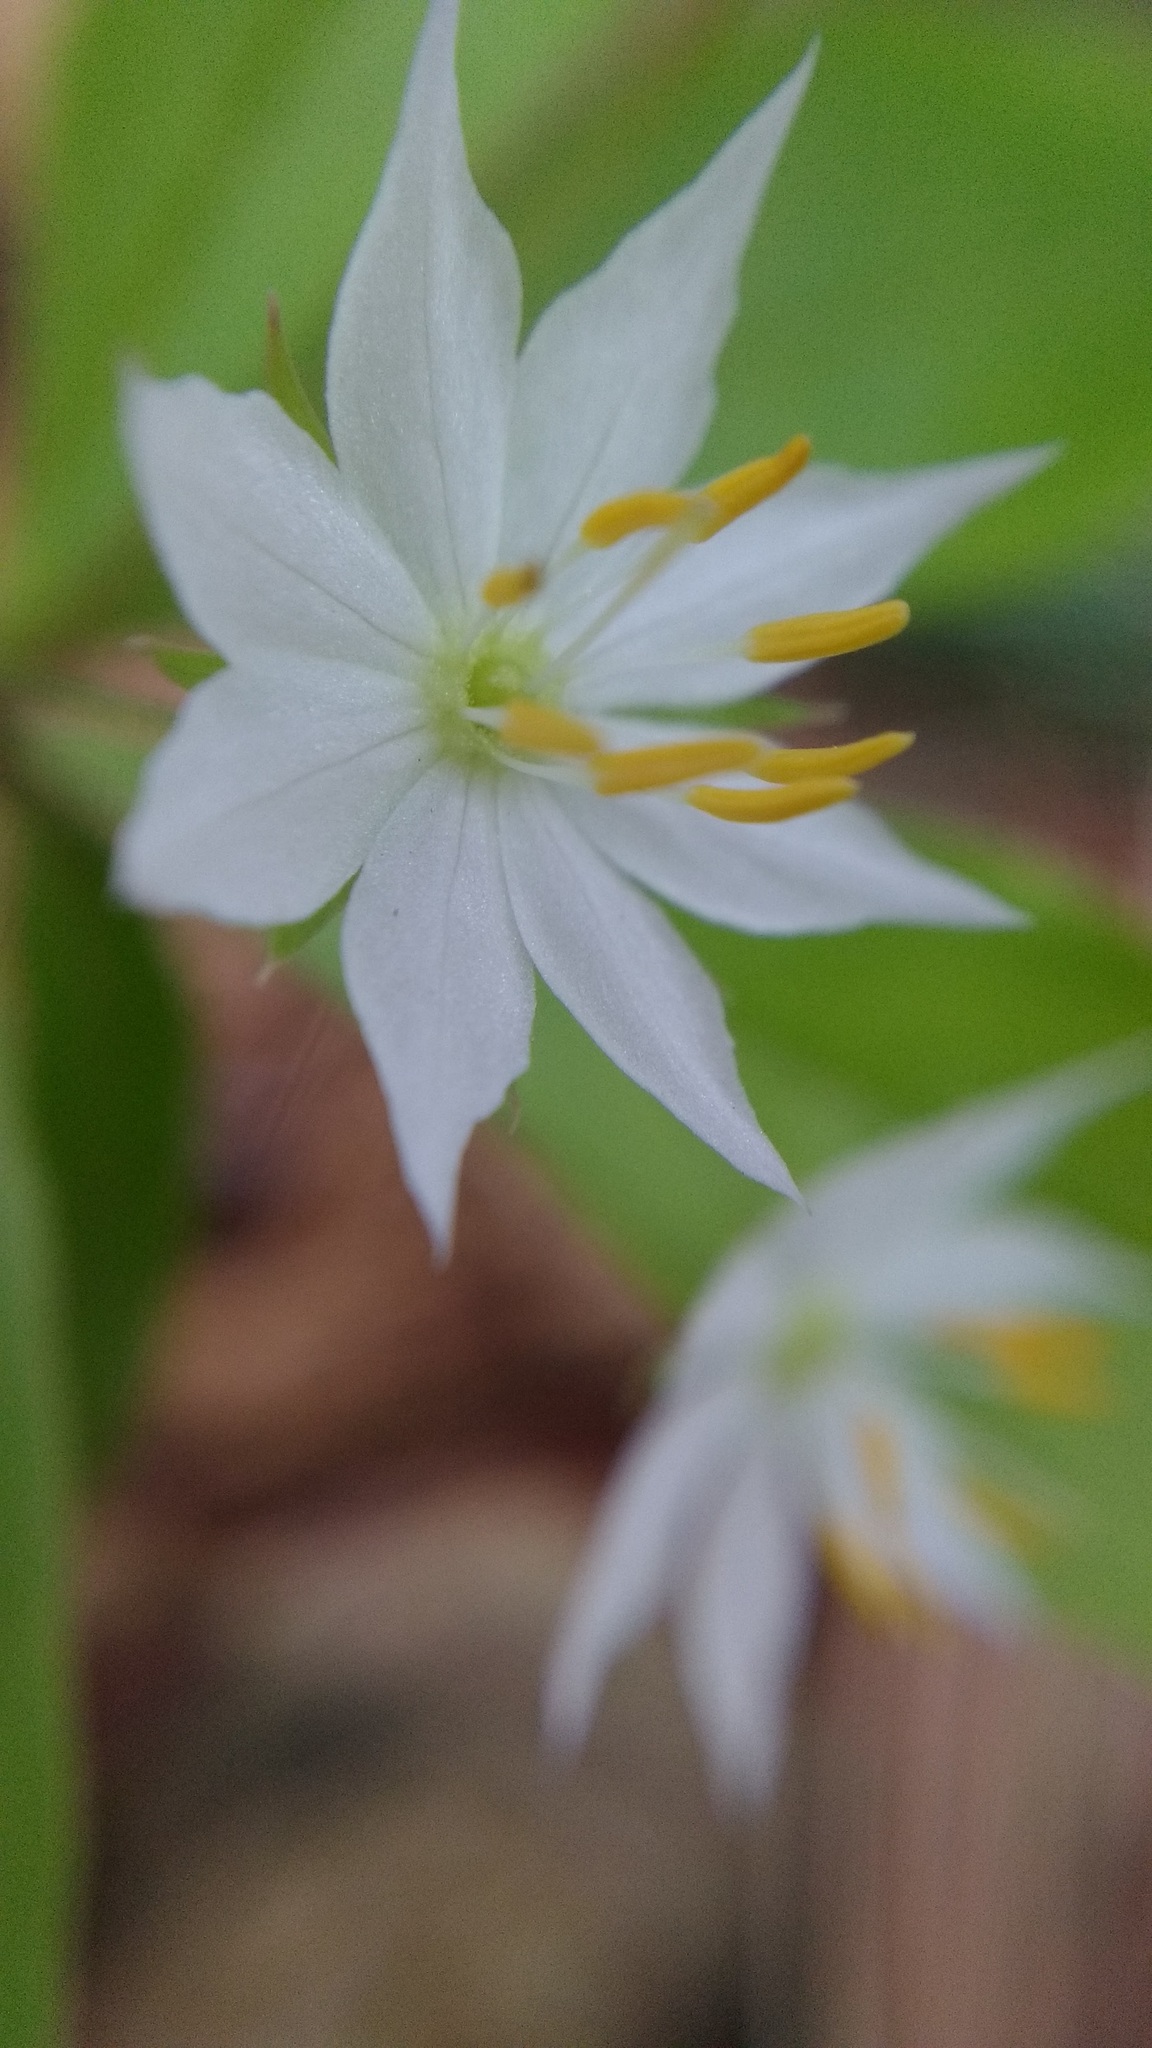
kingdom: Plantae
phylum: Tracheophyta
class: Magnoliopsida
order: Ericales
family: Primulaceae
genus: Lysimachia
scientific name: Lysimachia borealis
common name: American starflower
